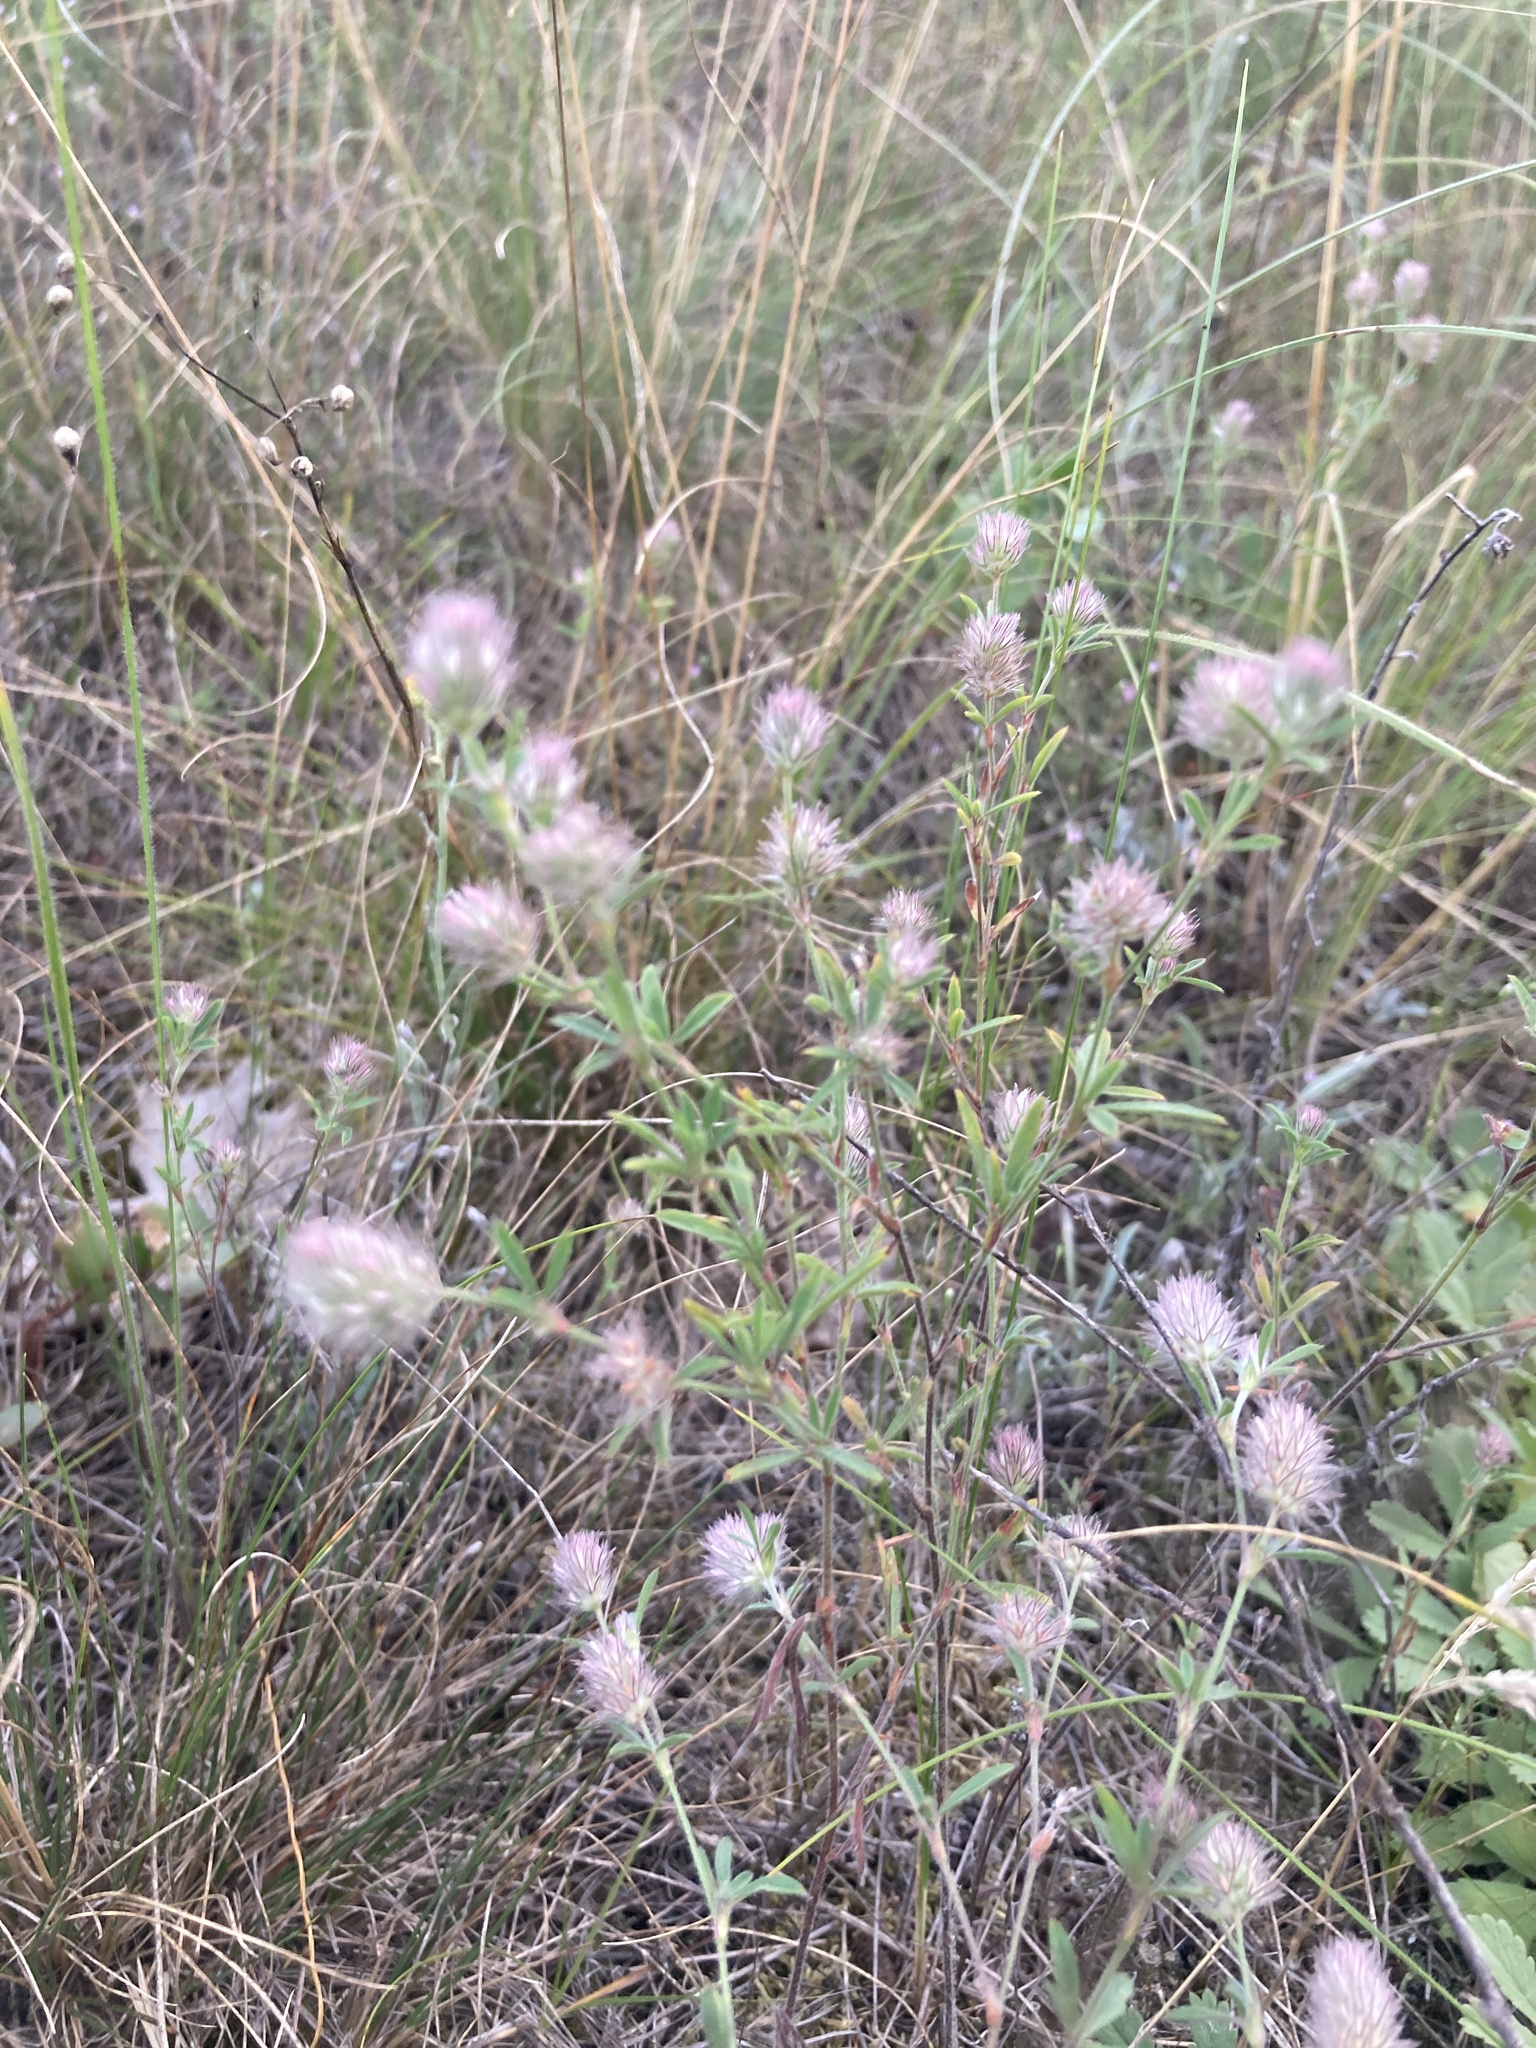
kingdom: Plantae
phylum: Tracheophyta
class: Magnoliopsida
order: Fabales
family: Fabaceae
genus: Trifolium
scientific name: Trifolium arvense
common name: Hare's-foot clover
